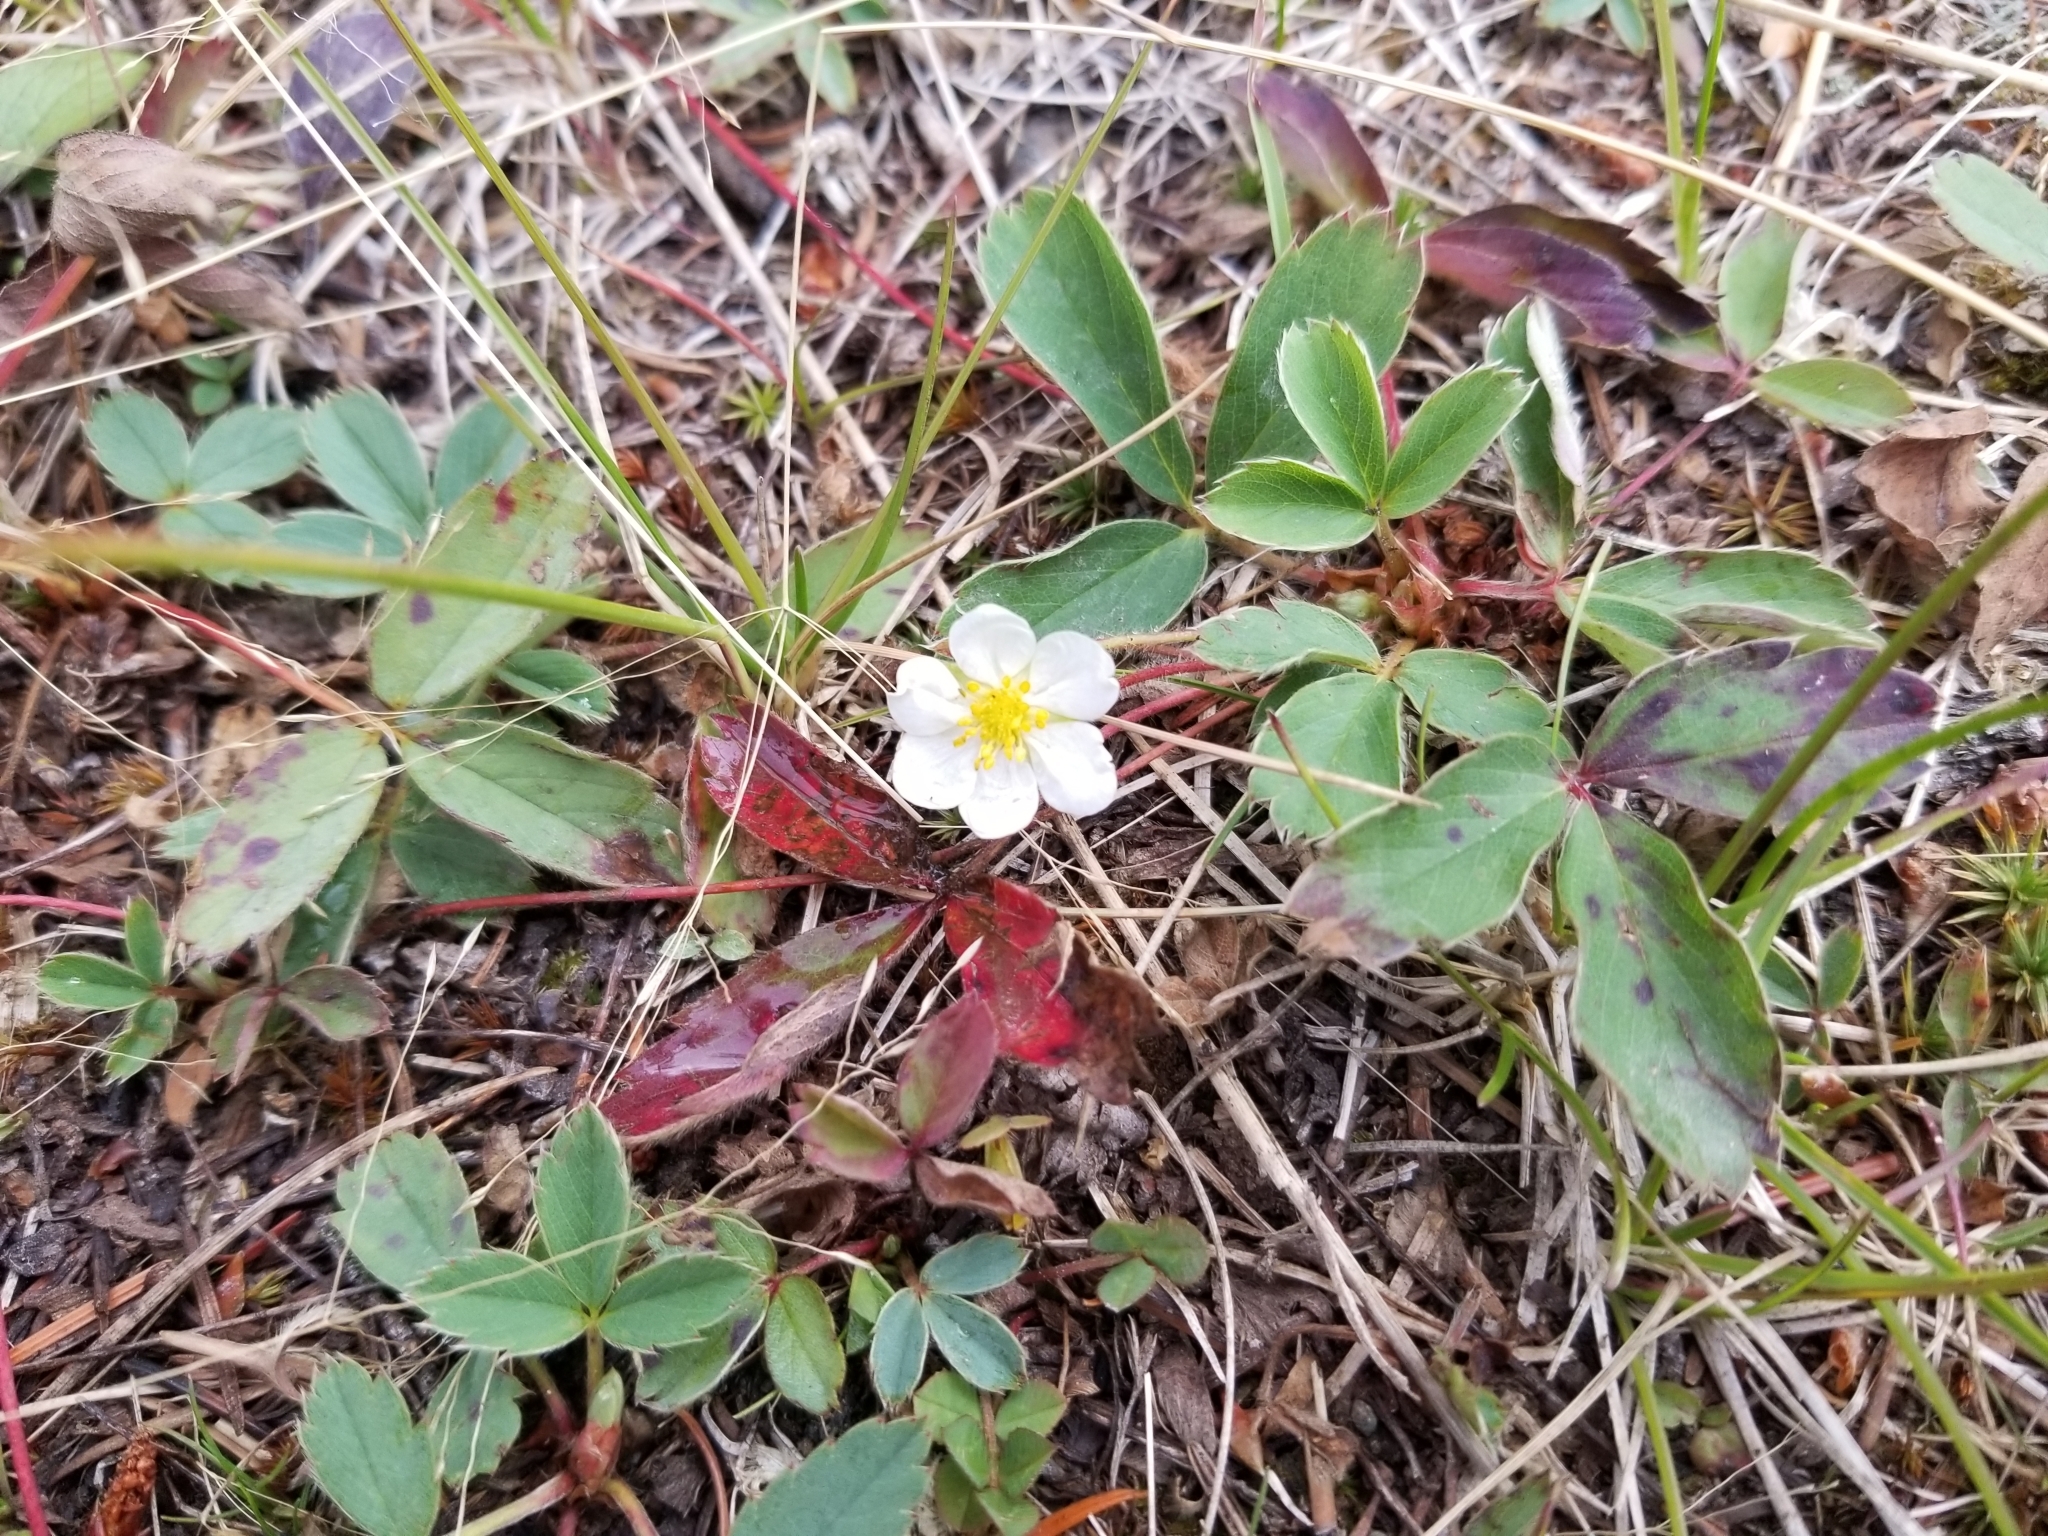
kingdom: Plantae
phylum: Tracheophyta
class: Magnoliopsida
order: Rosales
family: Rosaceae
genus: Fragaria
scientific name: Fragaria virginiana
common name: Thickleaved wild strawberry
